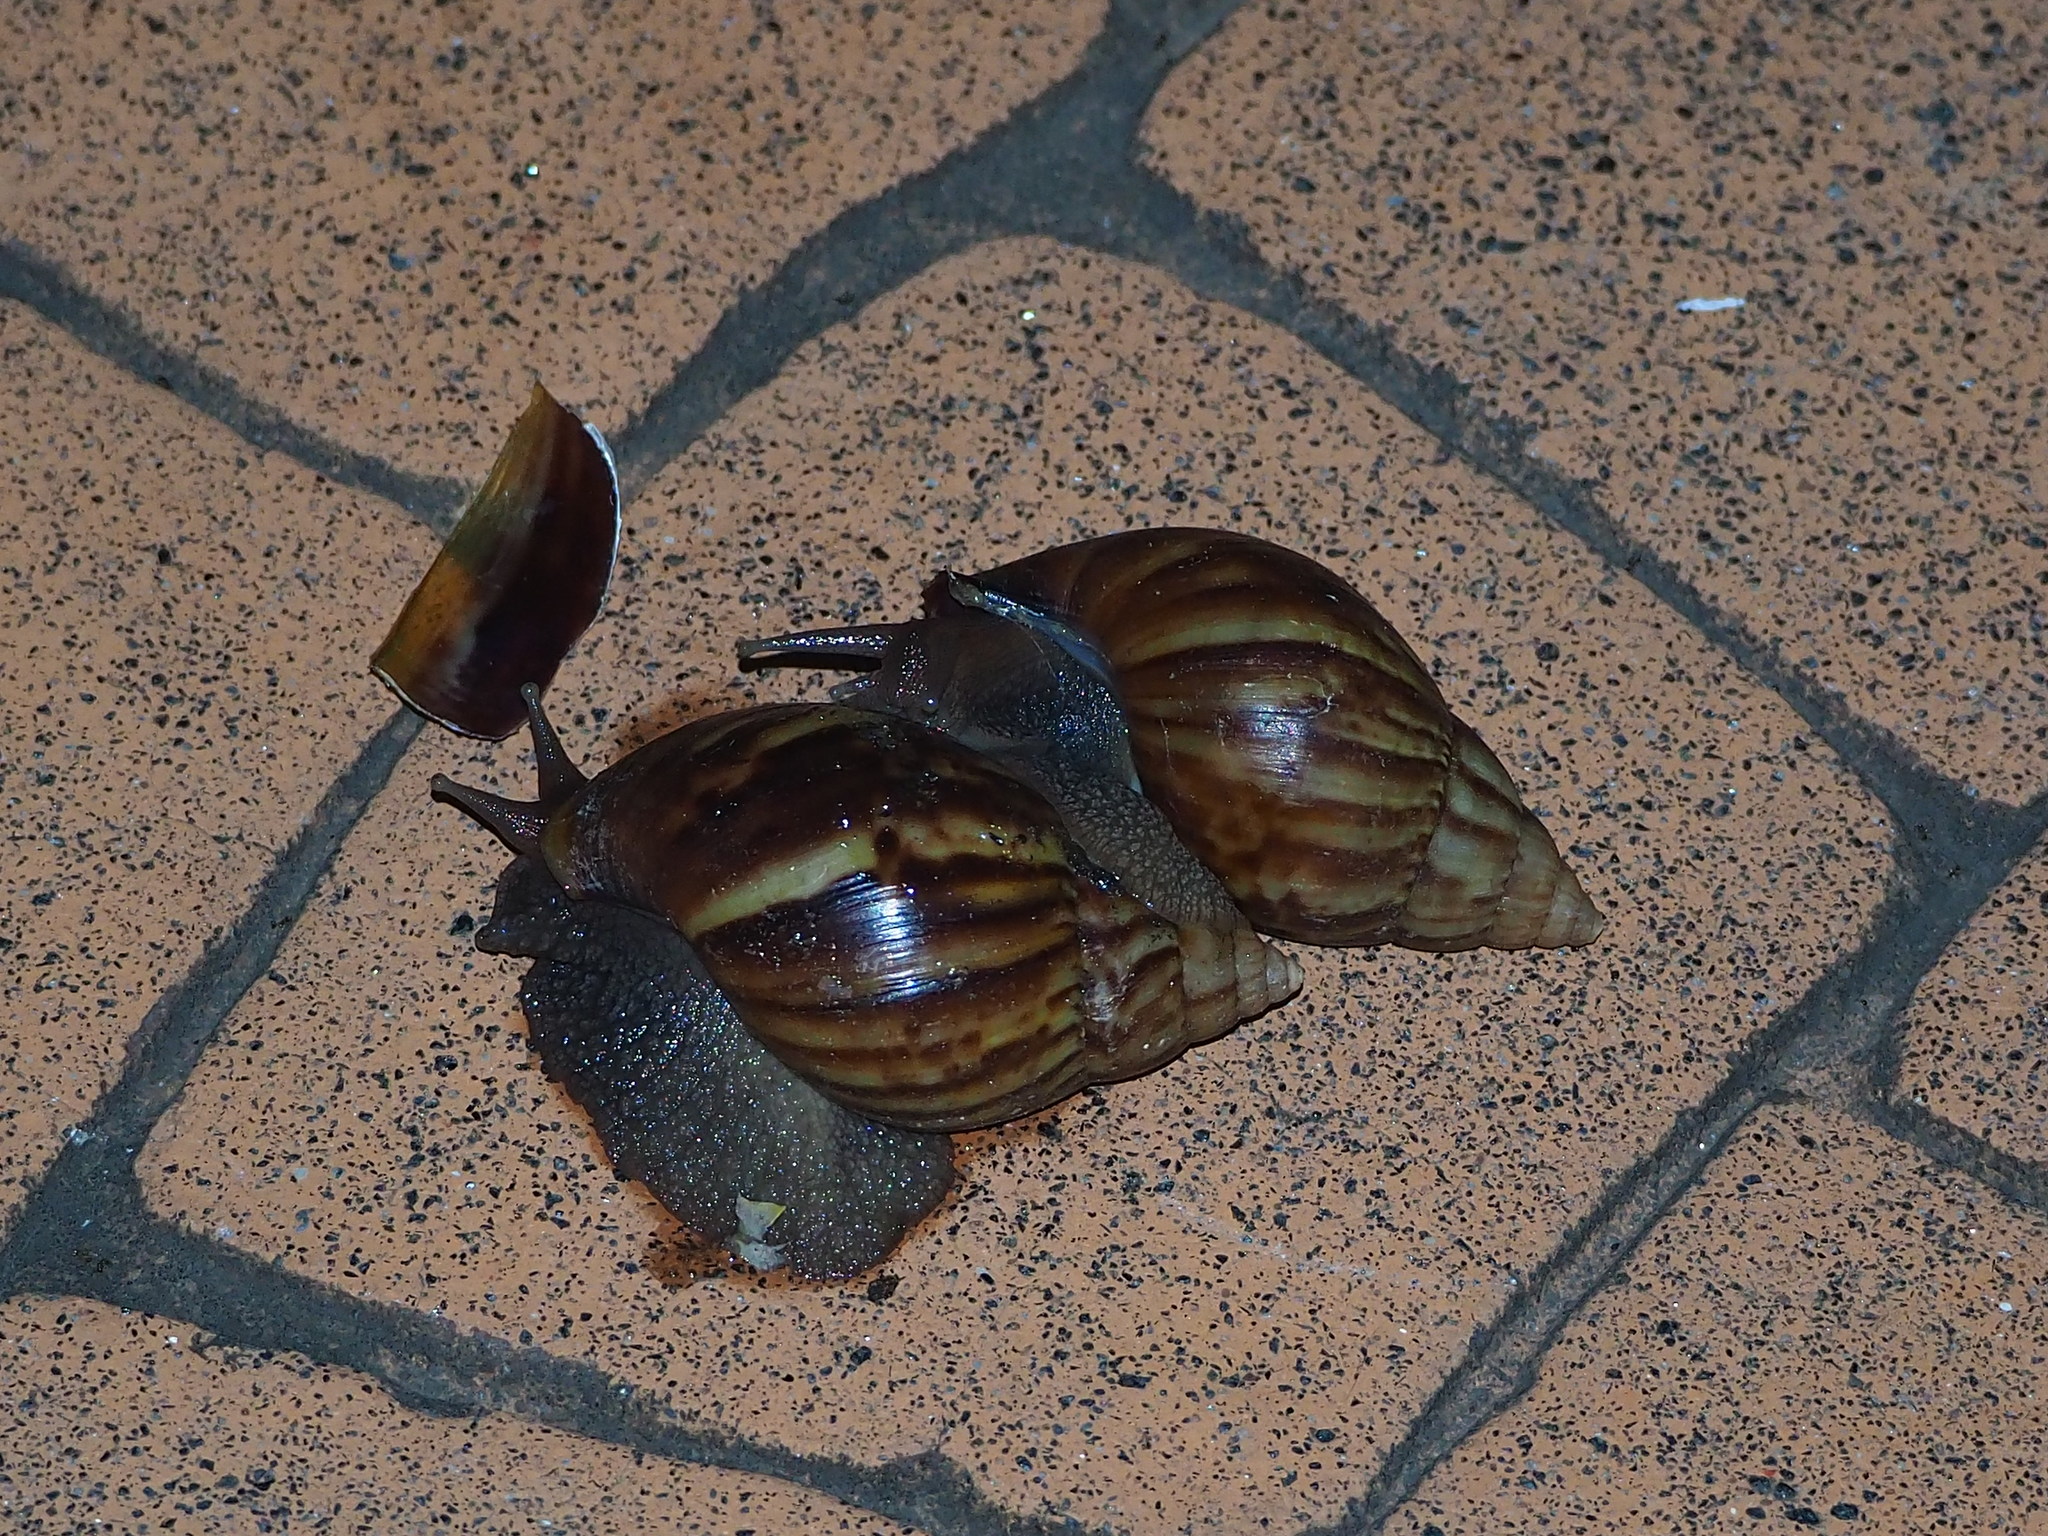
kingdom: Animalia
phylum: Mollusca
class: Gastropoda
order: Stylommatophora
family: Achatinidae
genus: Lissachatina
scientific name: Lissachatina fulica
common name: Giant african snail
